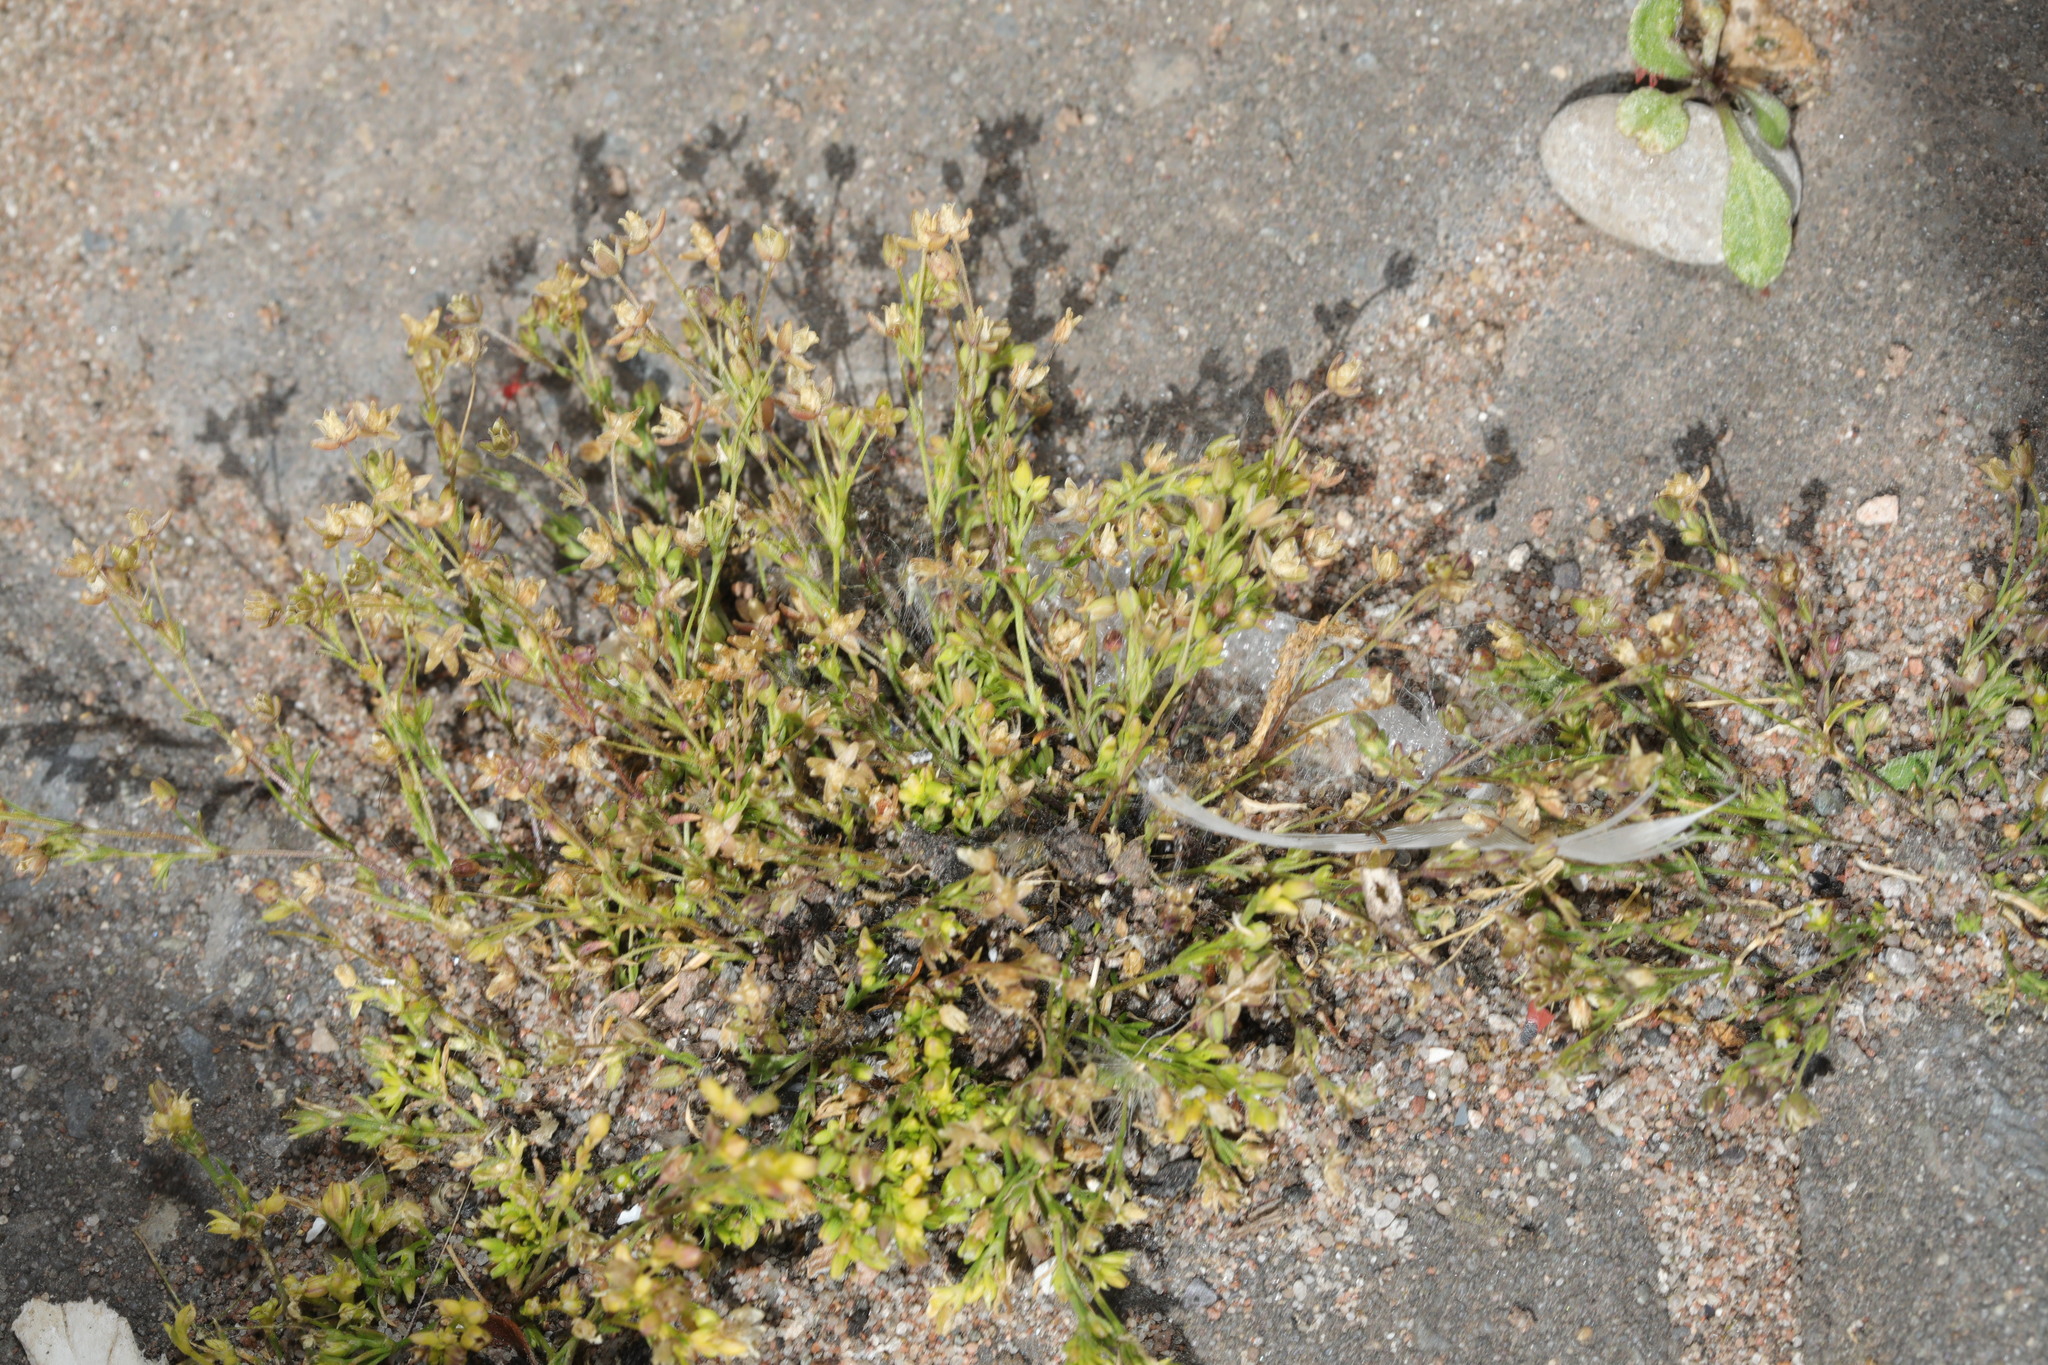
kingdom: Plantae
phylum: Tracheophyta
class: Magnoliopsida
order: Caryophyllales
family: Caryophyllaceae
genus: Sagina
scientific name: Sagina procumbens
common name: Procumbent pearlwort
